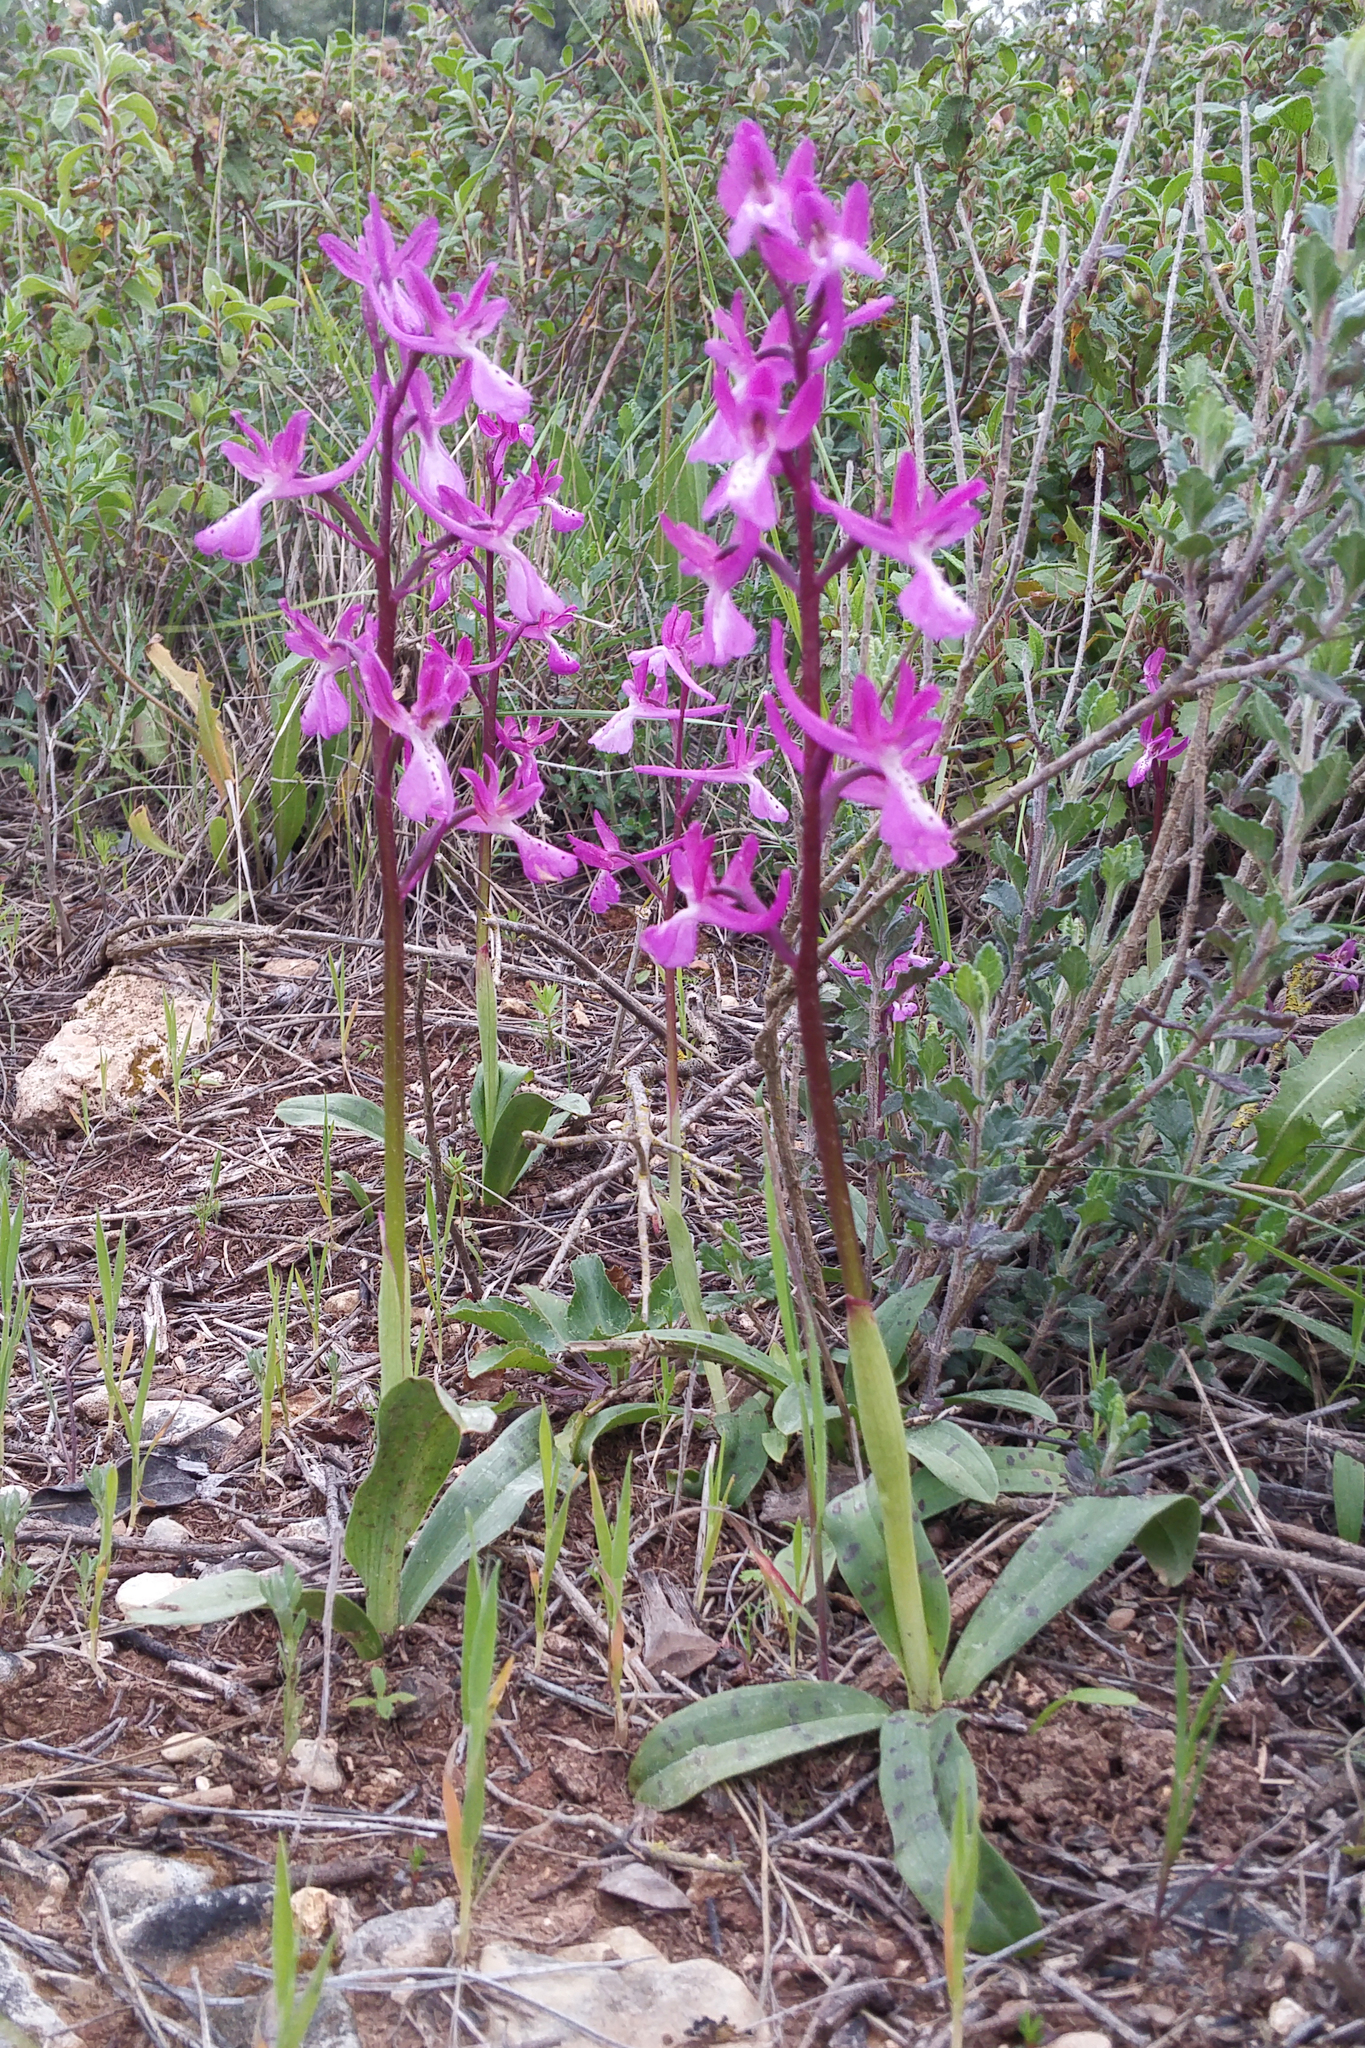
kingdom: Plantae
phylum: Tracheophyta
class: Liliopsida
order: Asparagales
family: Orchidaceae
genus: Orchis
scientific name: Orchis anatolica
